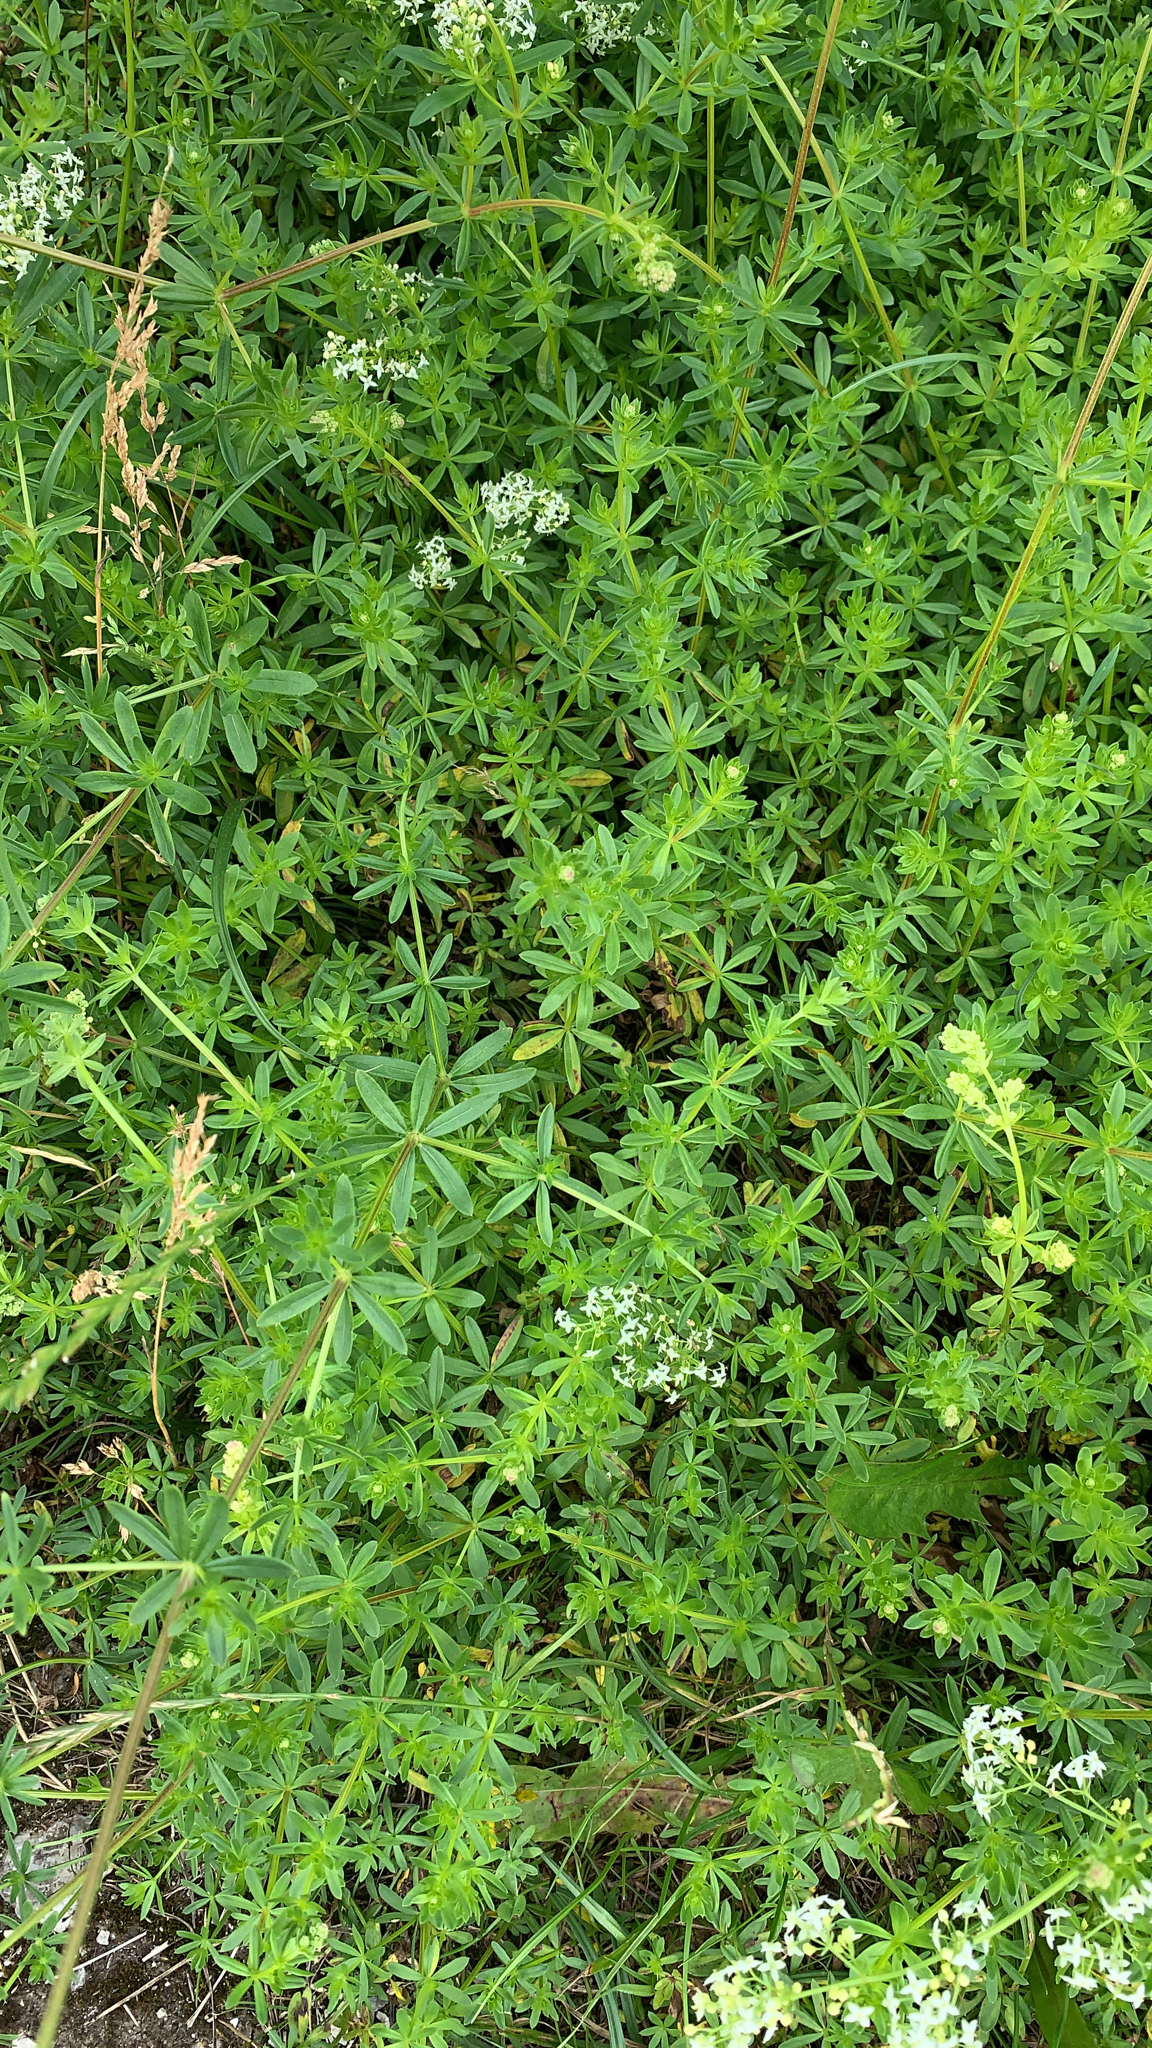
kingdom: Plantae
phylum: Tracheophyta
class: Magnoliopsida
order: Gentianales
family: Rubiaceae
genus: Galium
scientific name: Galium mollugo
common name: Hedge bedstraw
